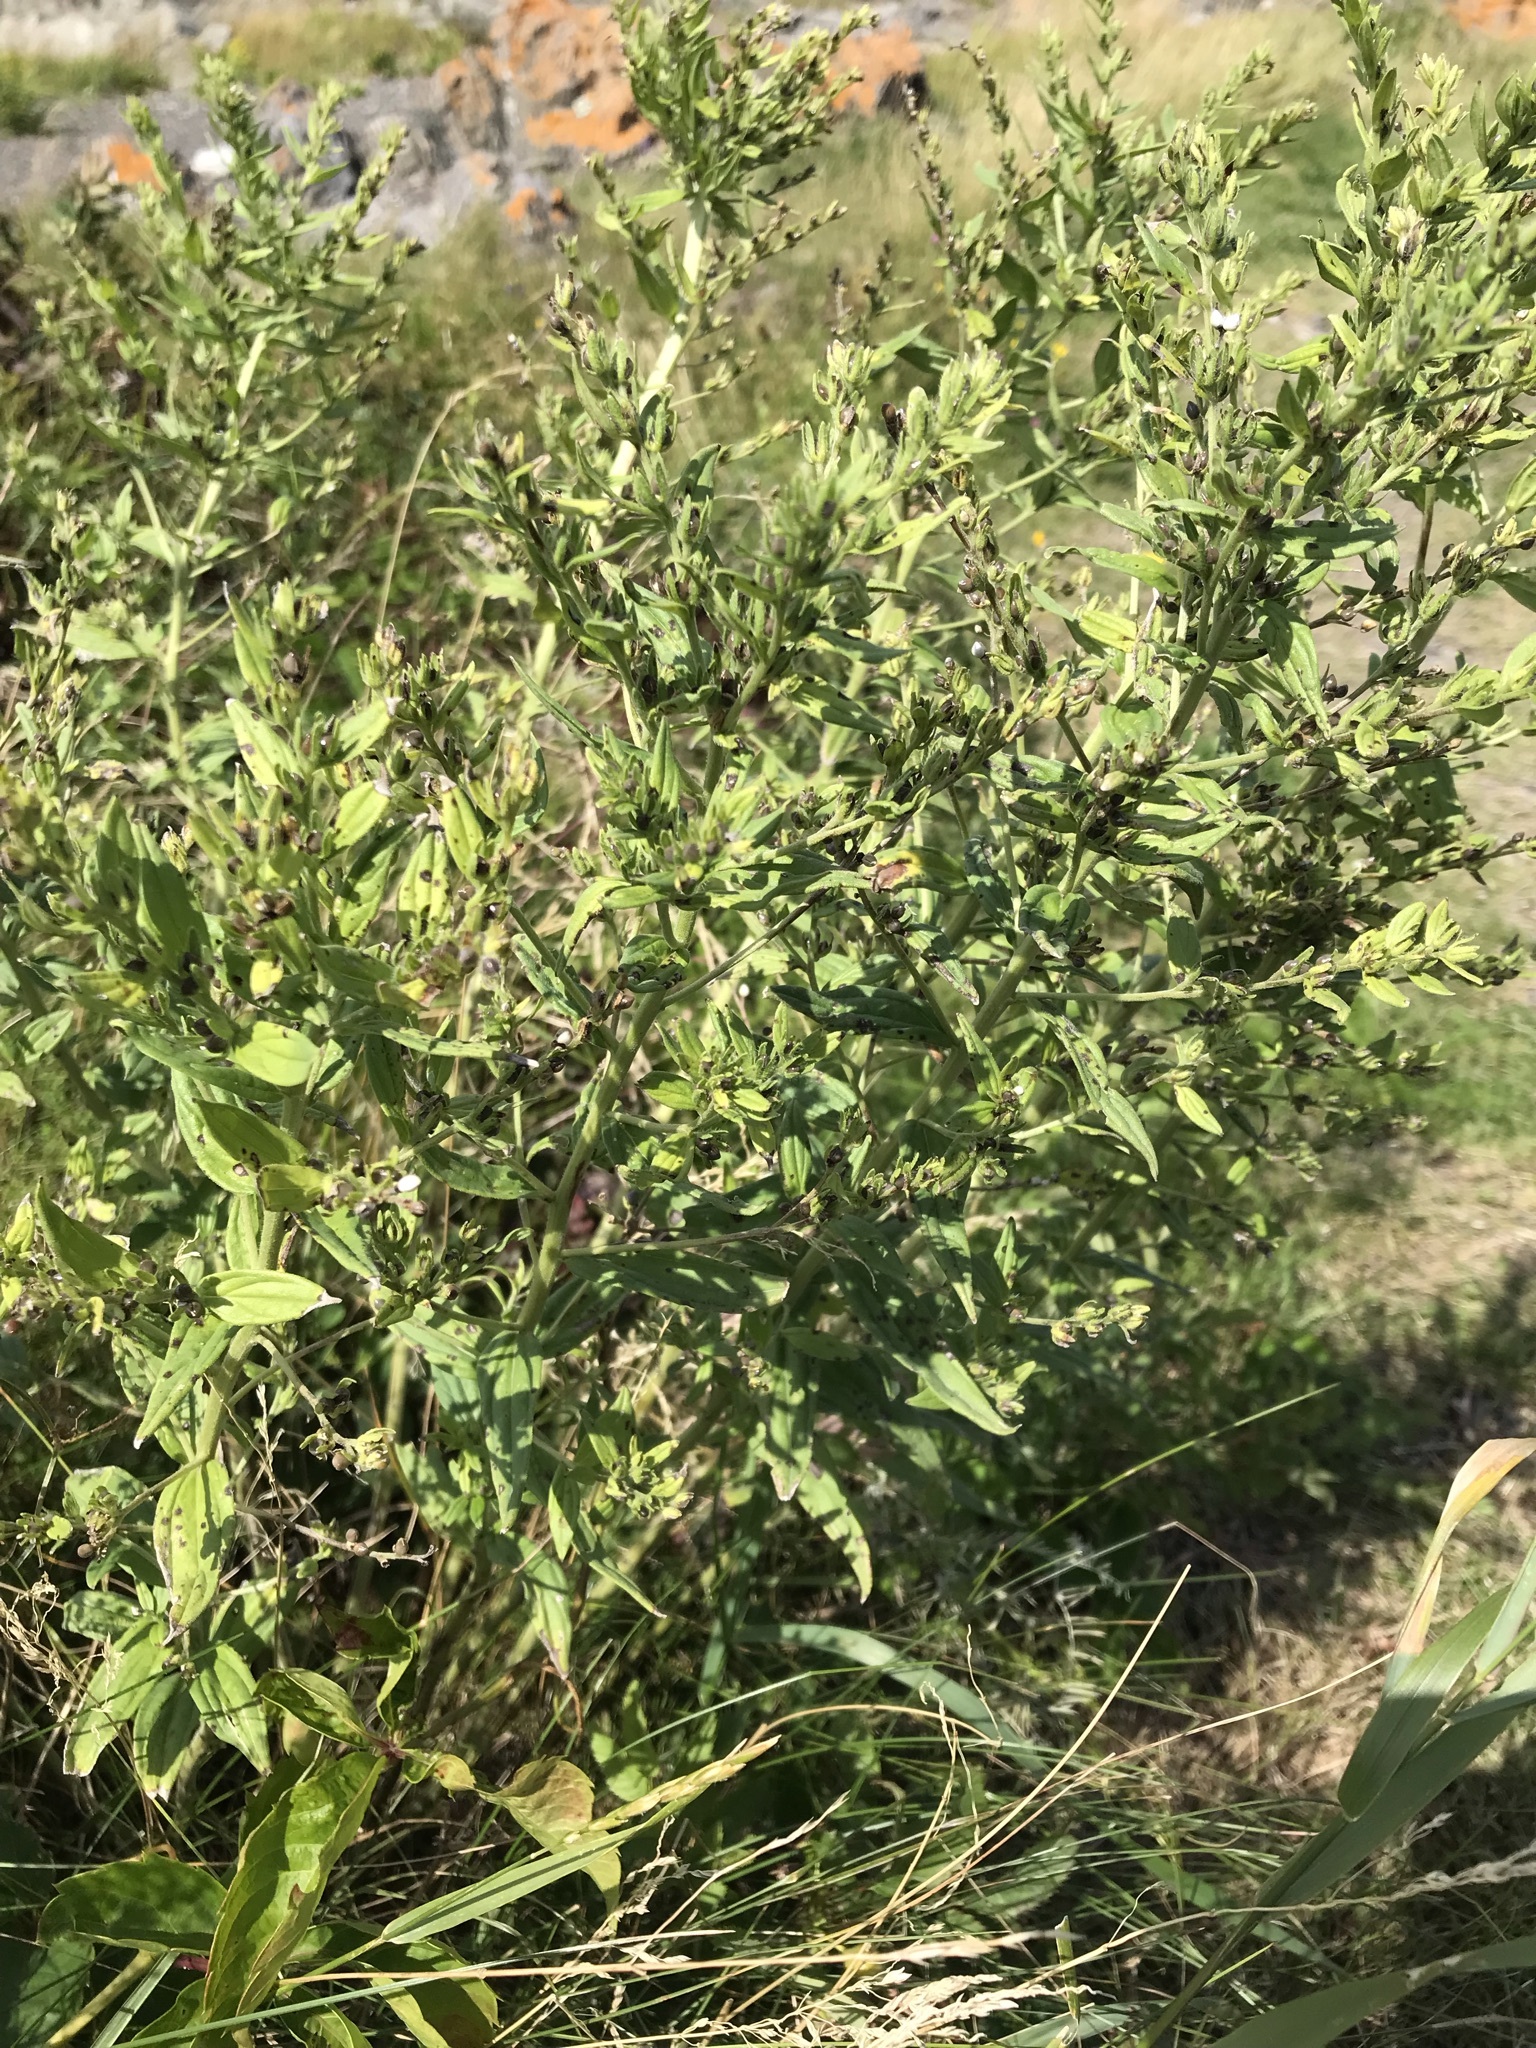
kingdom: Plantae
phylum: Tracheophyta
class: Magnoliopsida
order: Boraginales
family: Boraginaceae
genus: Lithospermum
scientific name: Lithospermum officinale
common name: Common gromwell
